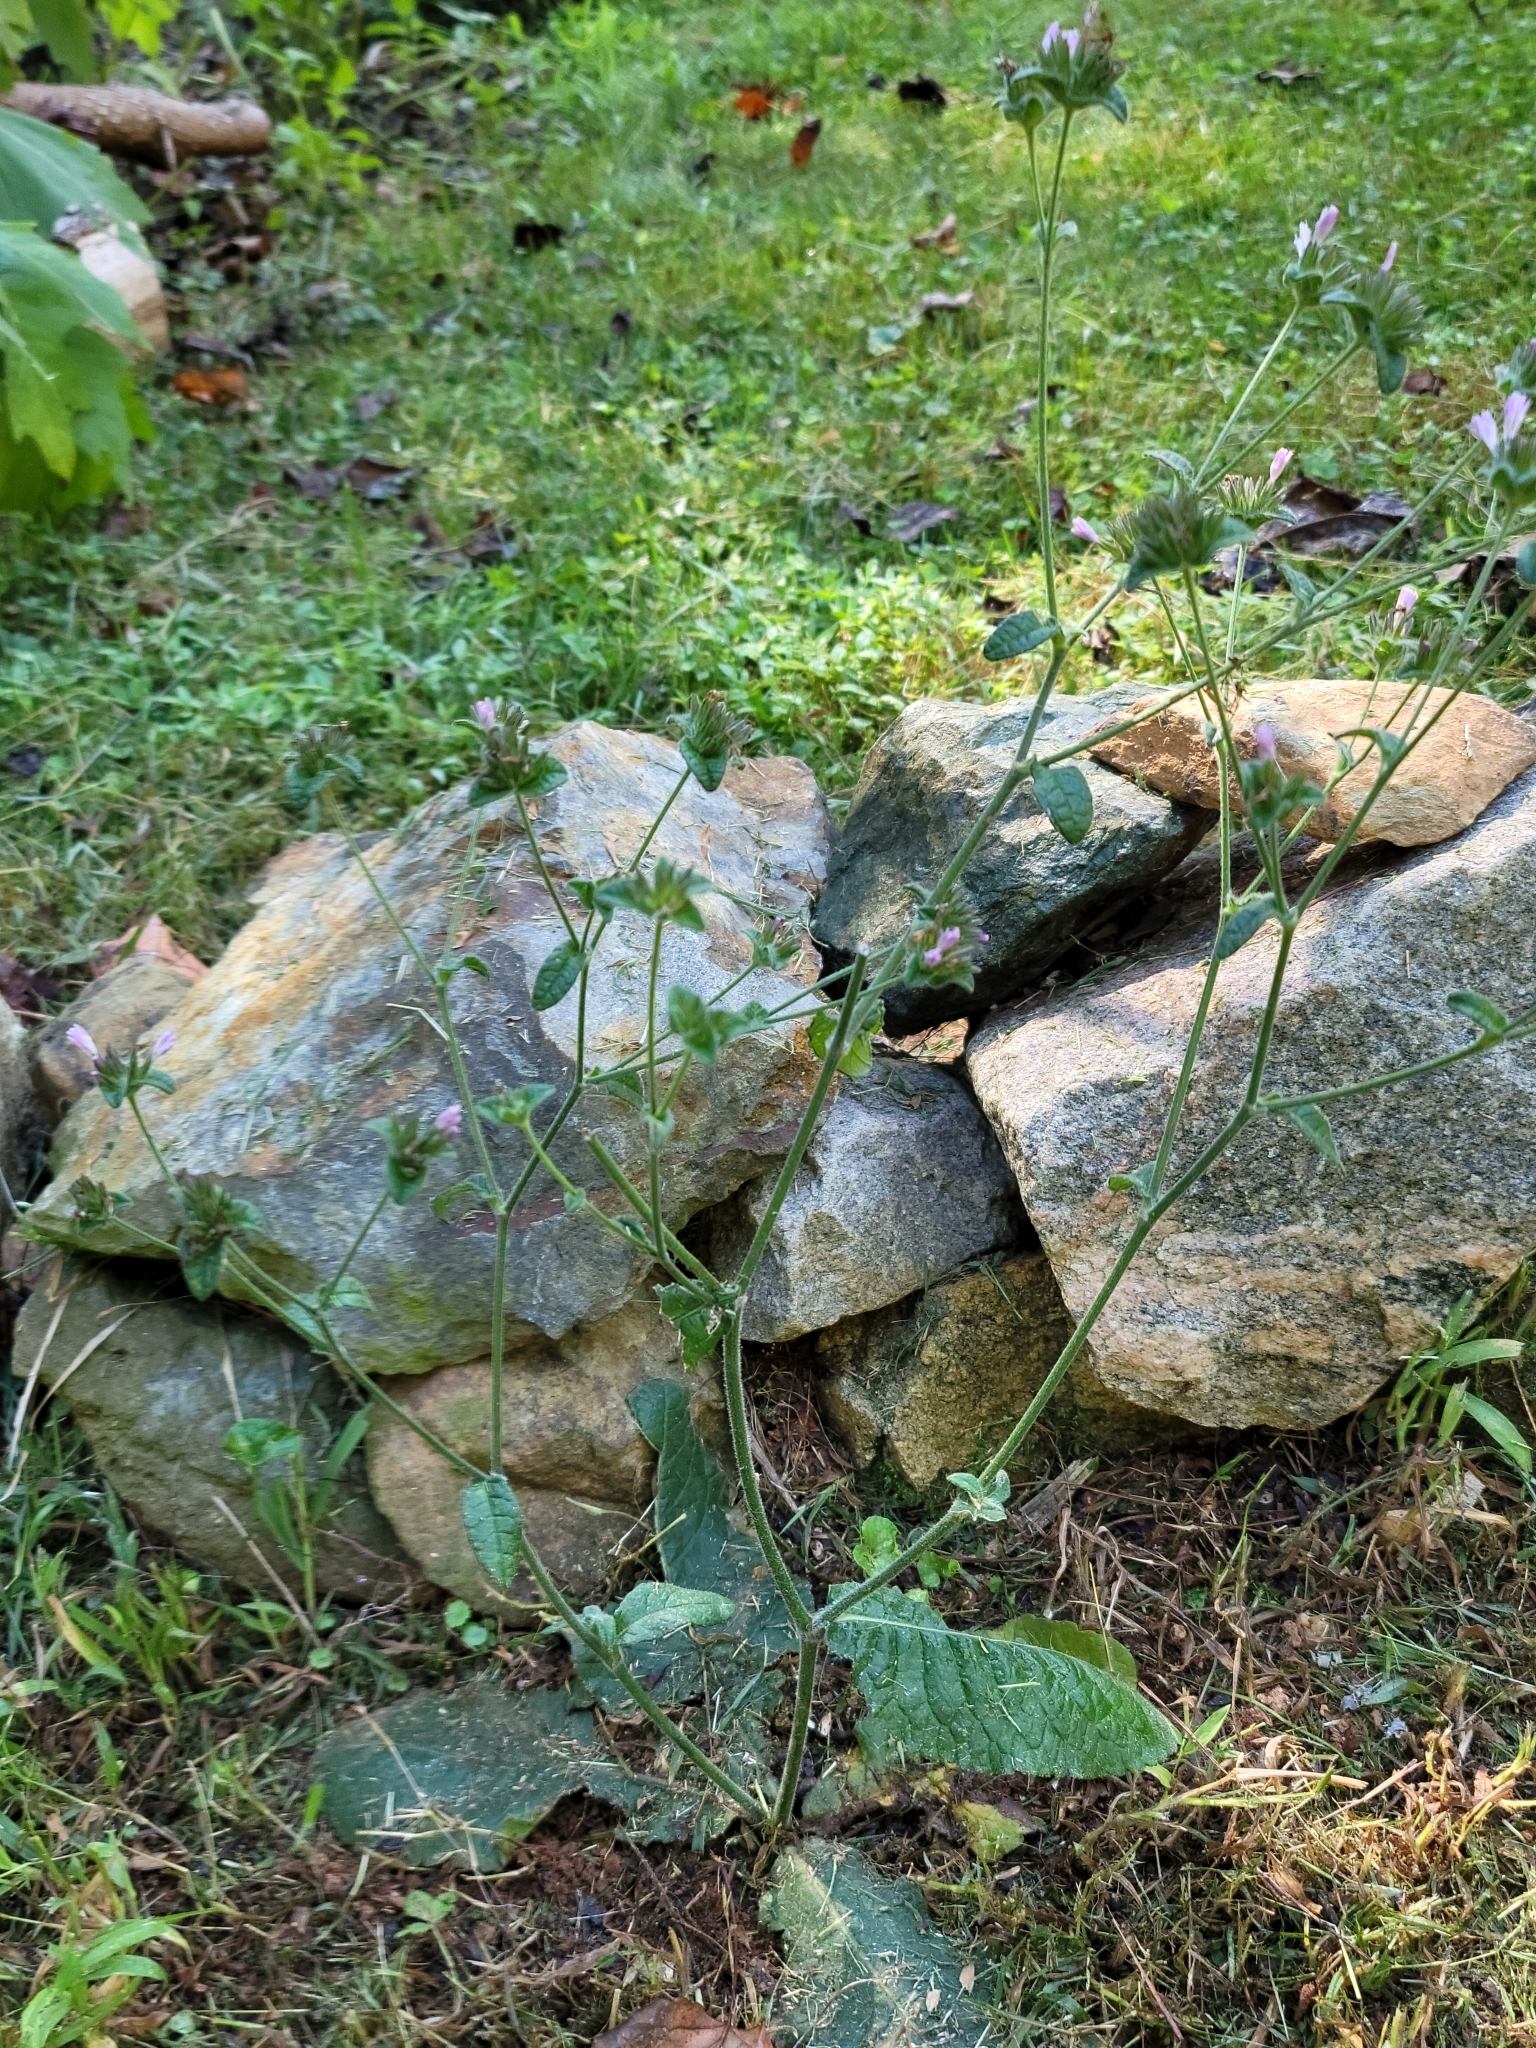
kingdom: Plantae
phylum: Tracheophyta
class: Magnoliopsida
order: Asterales
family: Asteraceae
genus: Elephantopus
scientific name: Elephantopus tomentosus
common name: Tobacco-weed
